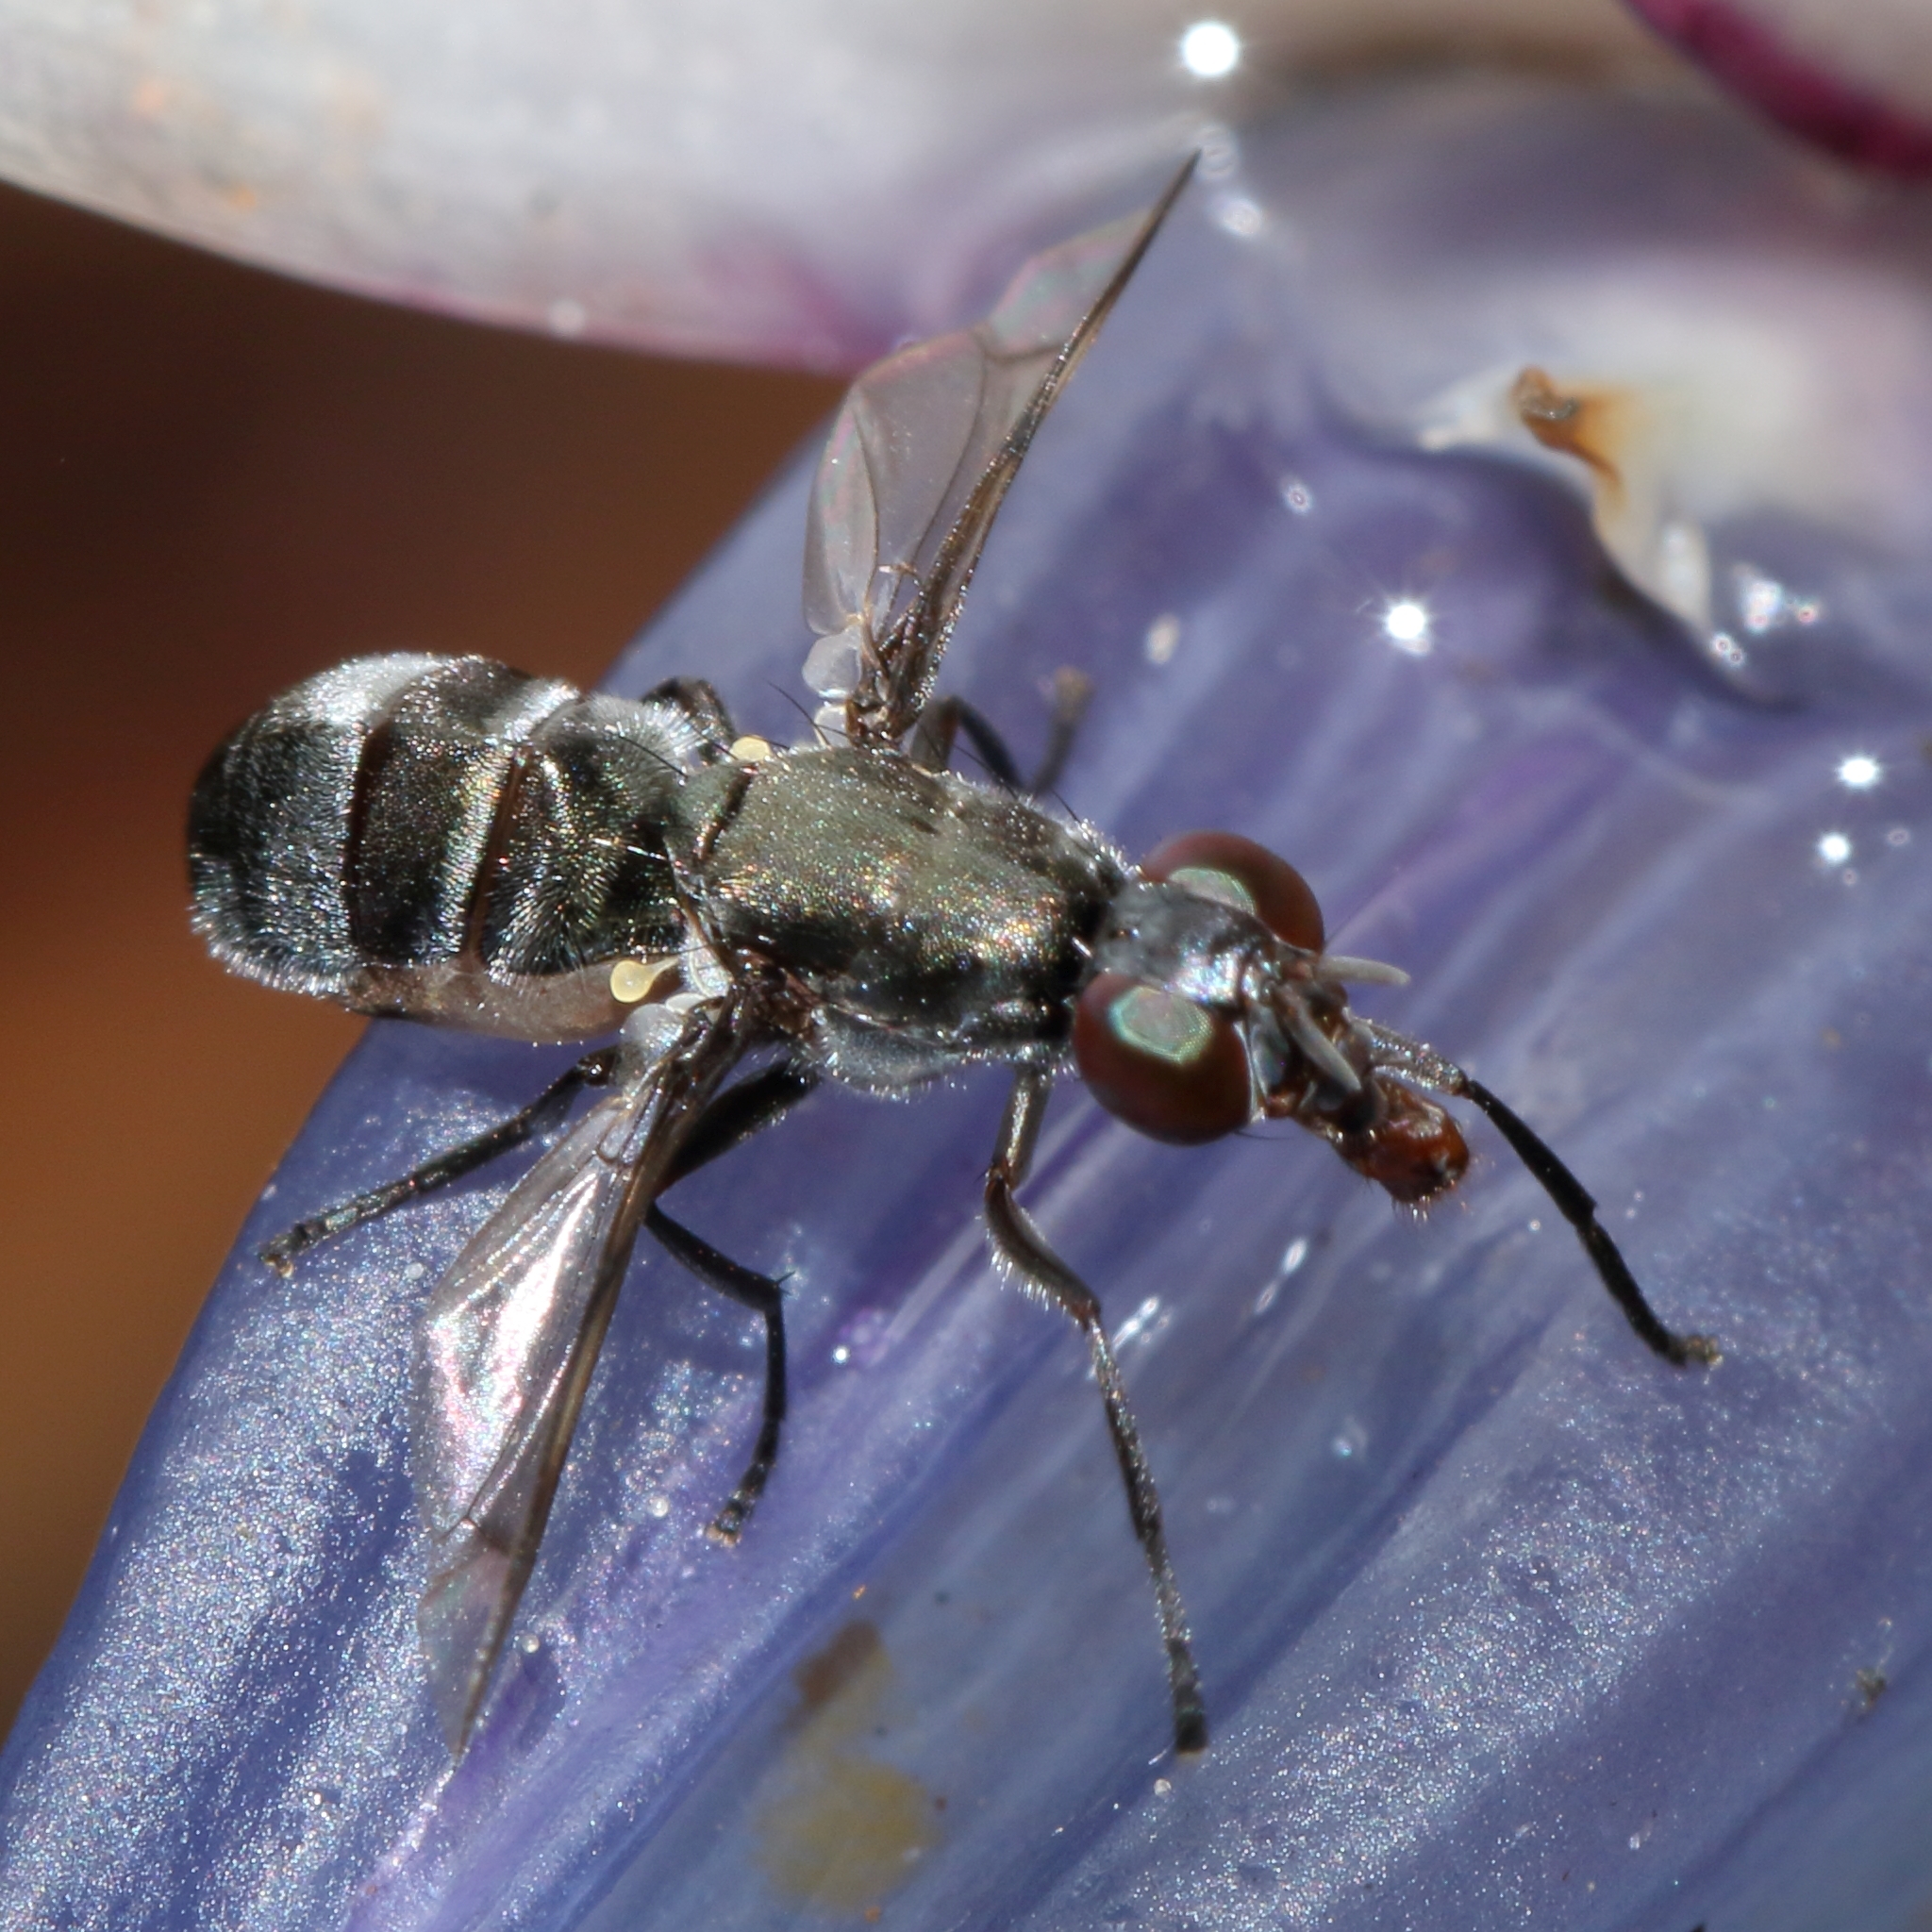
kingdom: Animalia
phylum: Arthropoda
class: Insecta
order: Diptera
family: Platystomatidae
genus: Plagiostenopterina
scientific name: Plagiostenopterina submetallica
